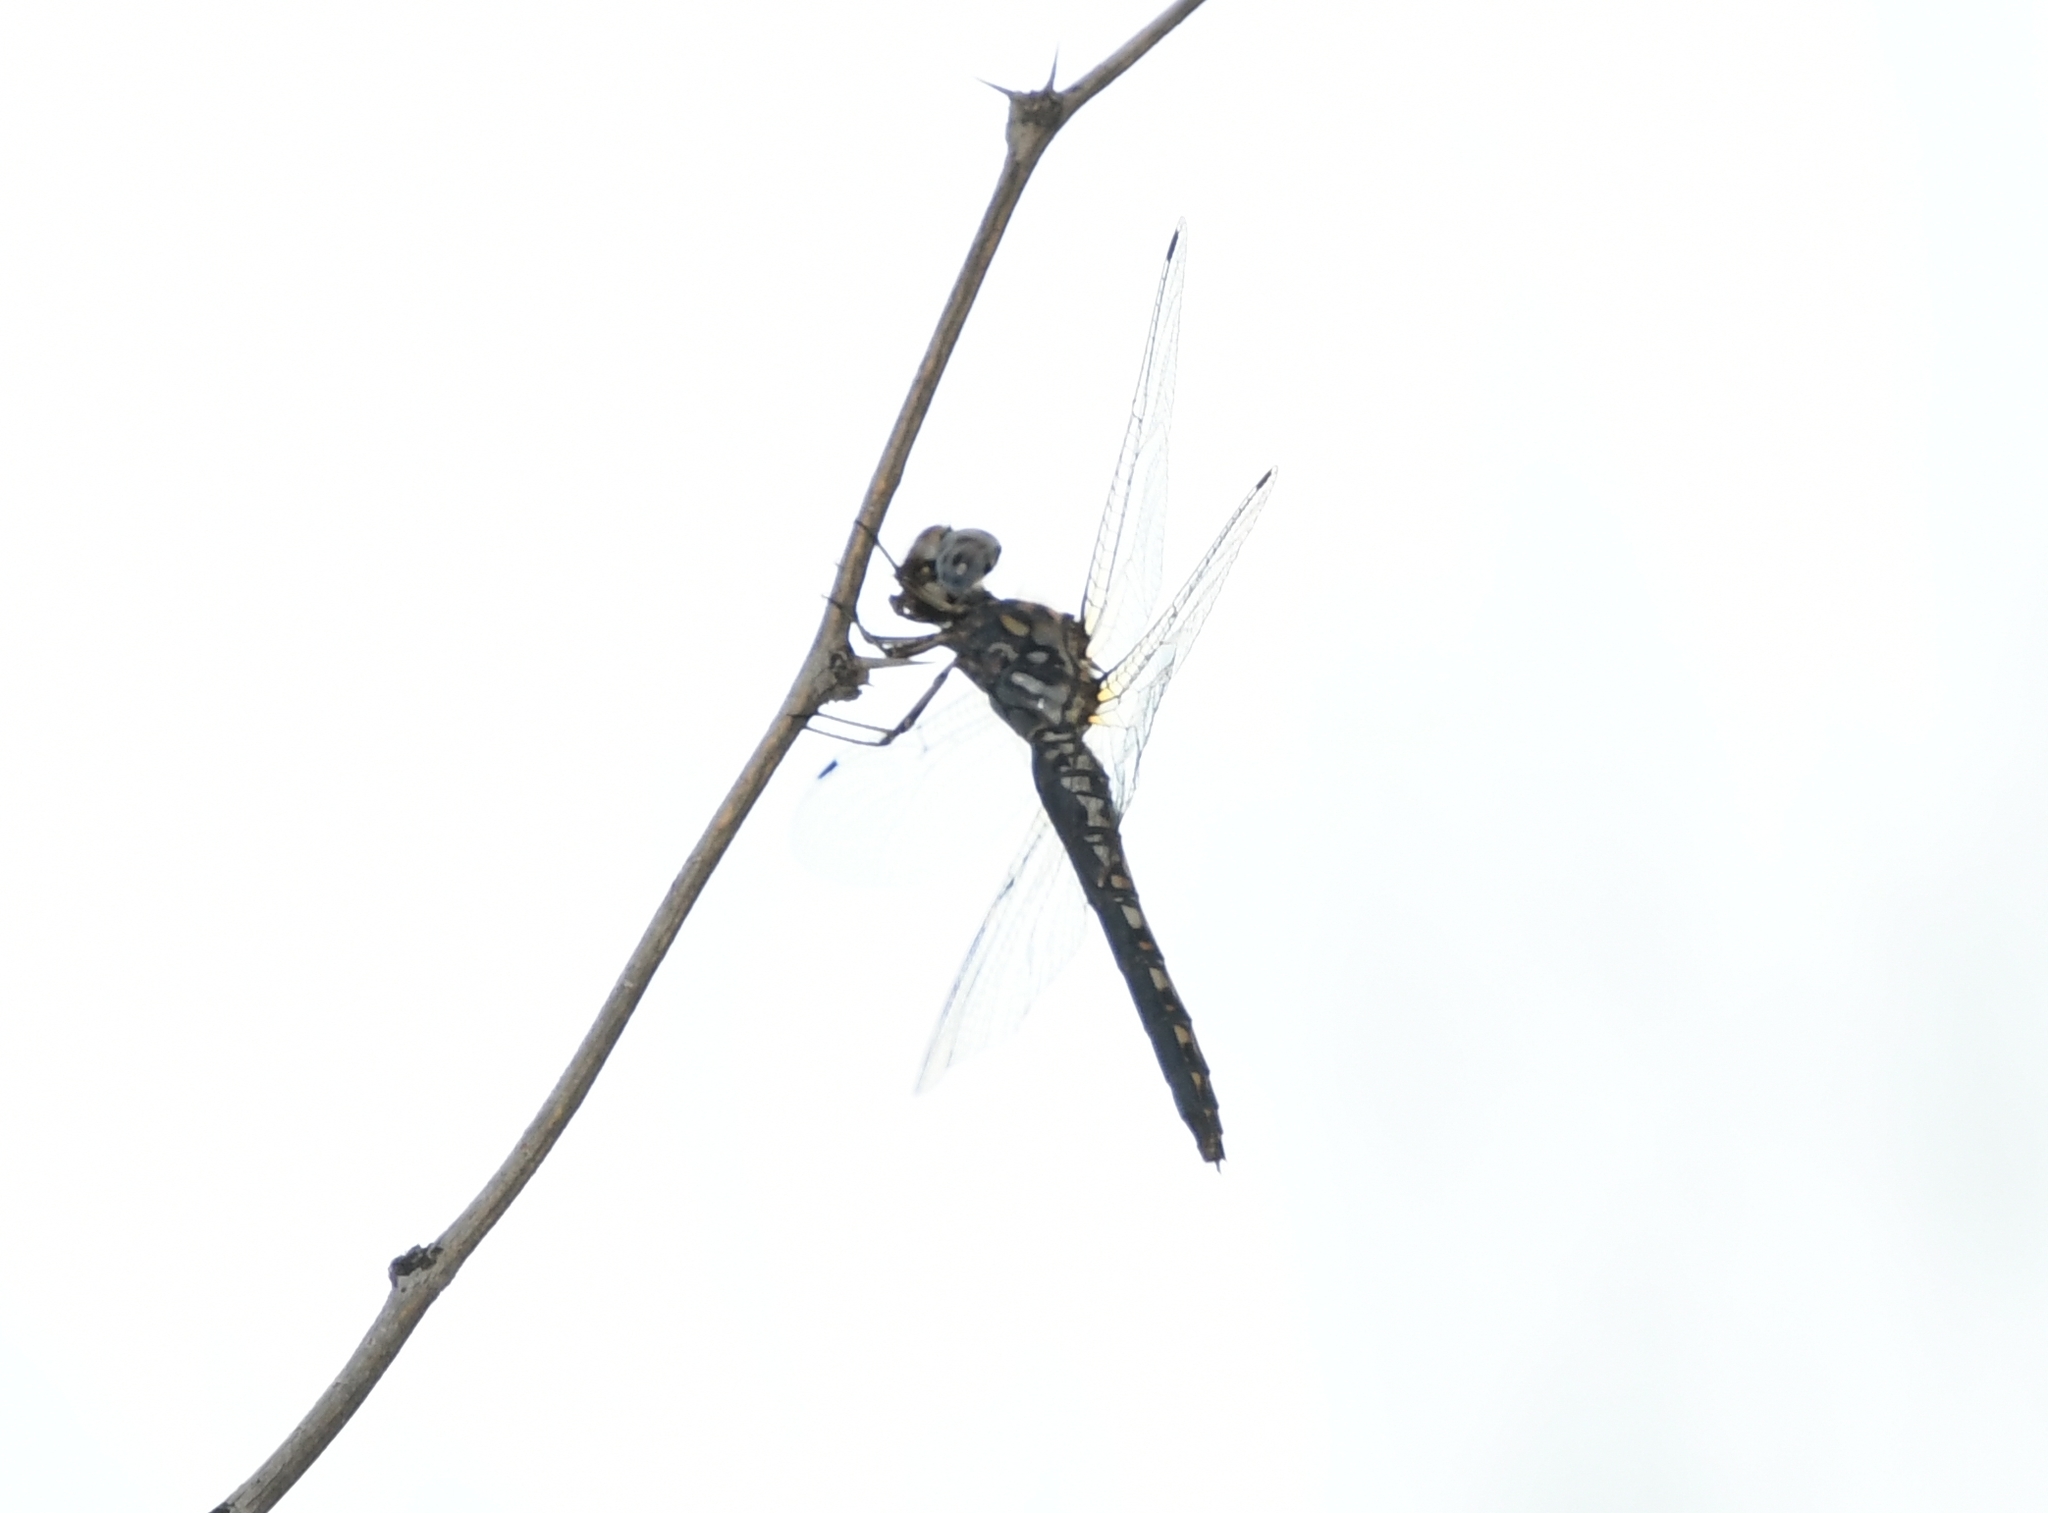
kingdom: Animalia
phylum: Arthropoda
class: Insecta
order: Odonata
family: Libellulidae
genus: Paltothemis
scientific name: Paltothemis lineatipes
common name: Red rock skimmer
